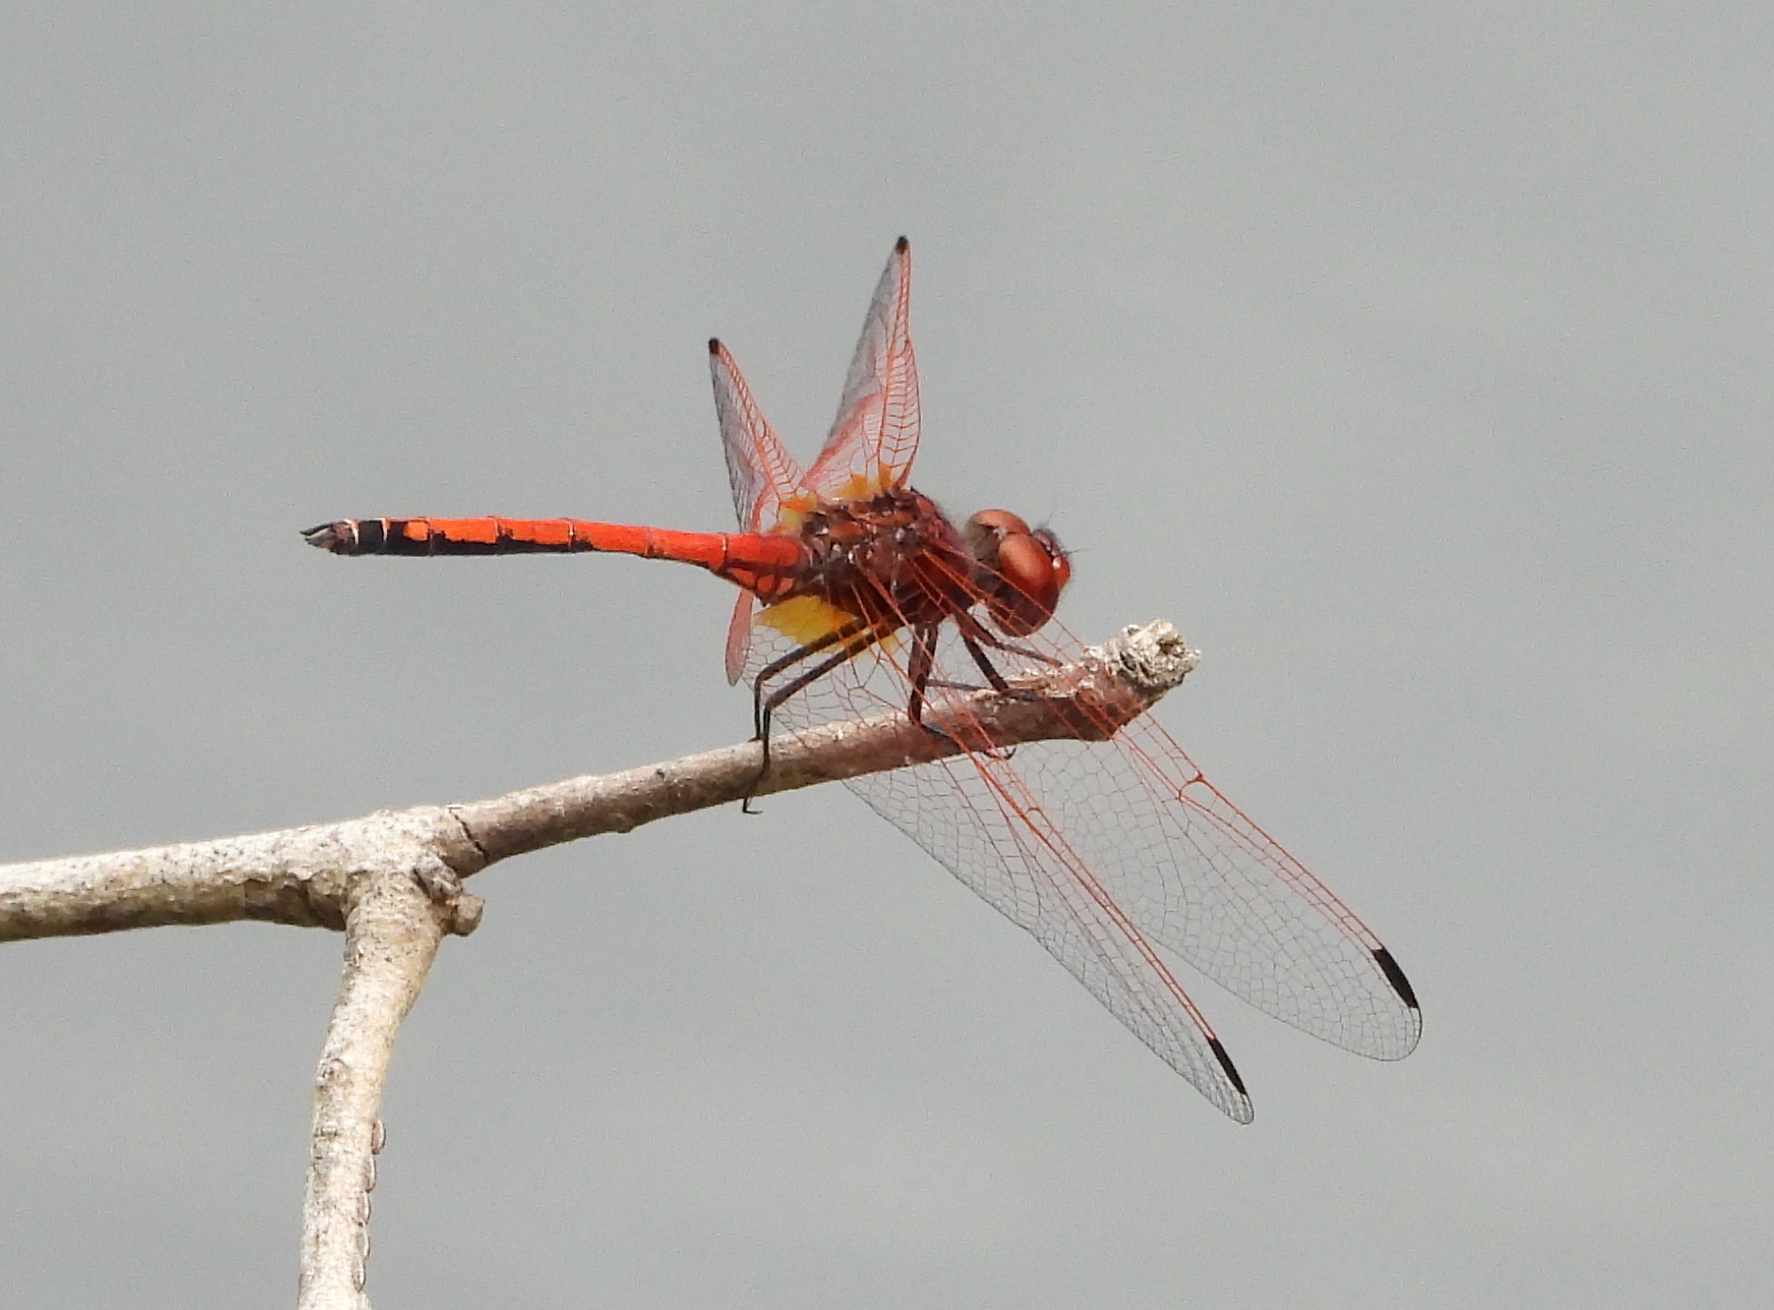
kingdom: Animalia
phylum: Arthropoda
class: Insecta
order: Odonata
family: Libellulidae
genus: Trithemis
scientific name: Trithemis arteriosa
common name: Red-veined dropwing
